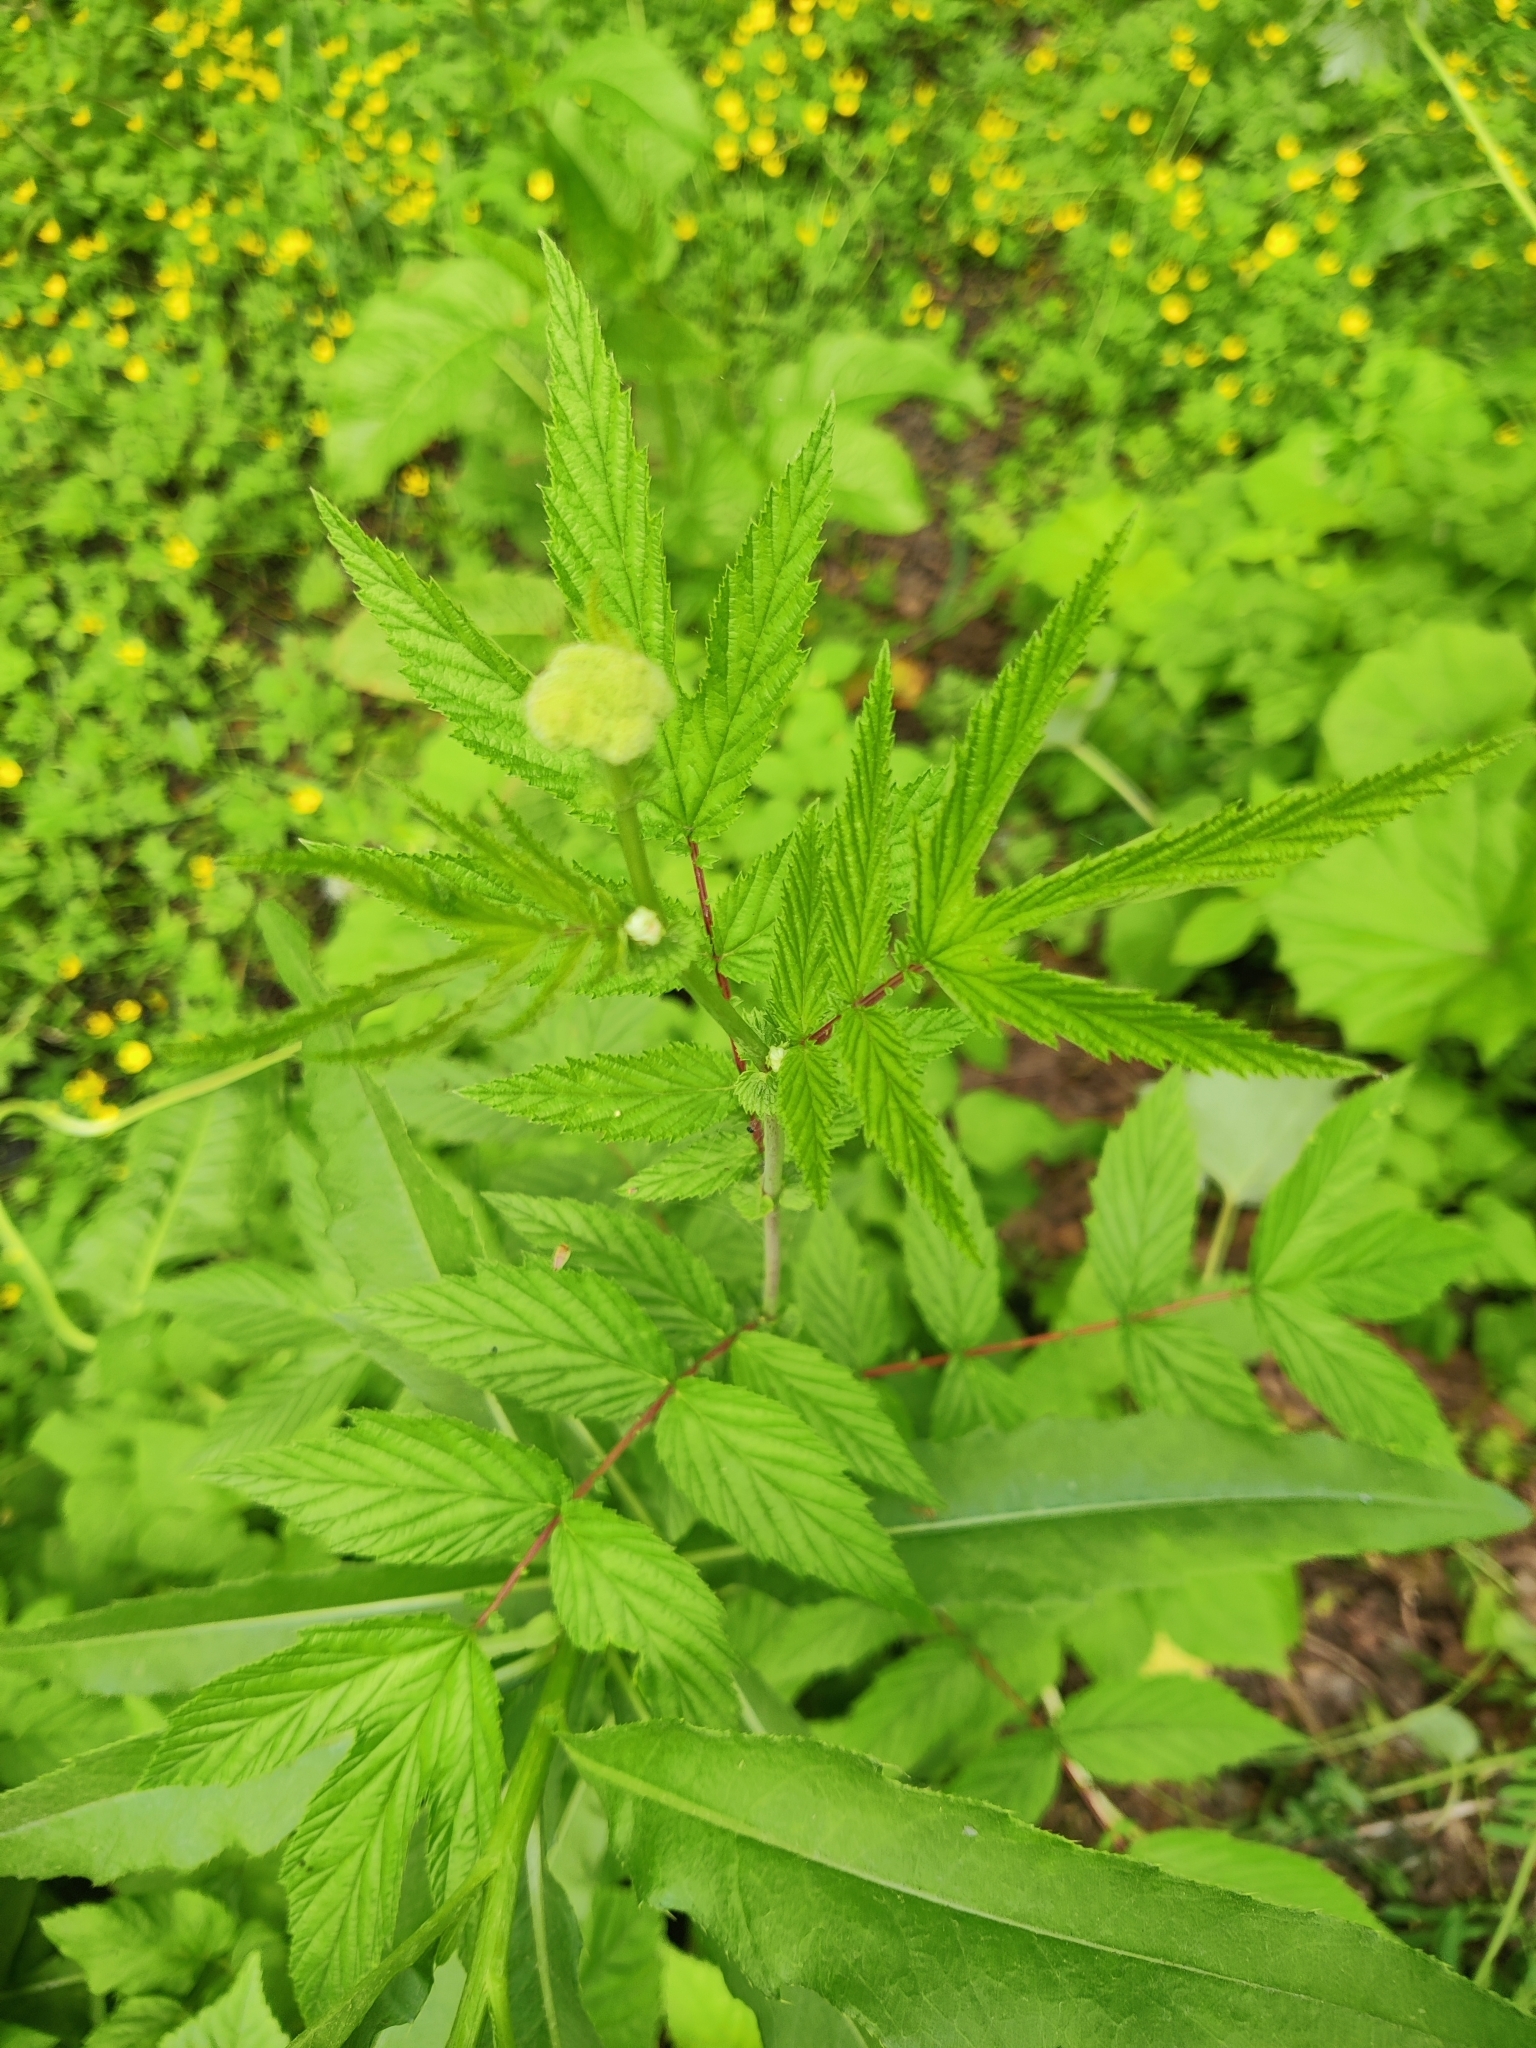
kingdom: Plantae
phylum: Tracheophyta
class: Magnoliopsida
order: Rosales
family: Rosaceae
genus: Filipendula
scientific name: Filipendula ulmaria
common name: Meadowsweet
